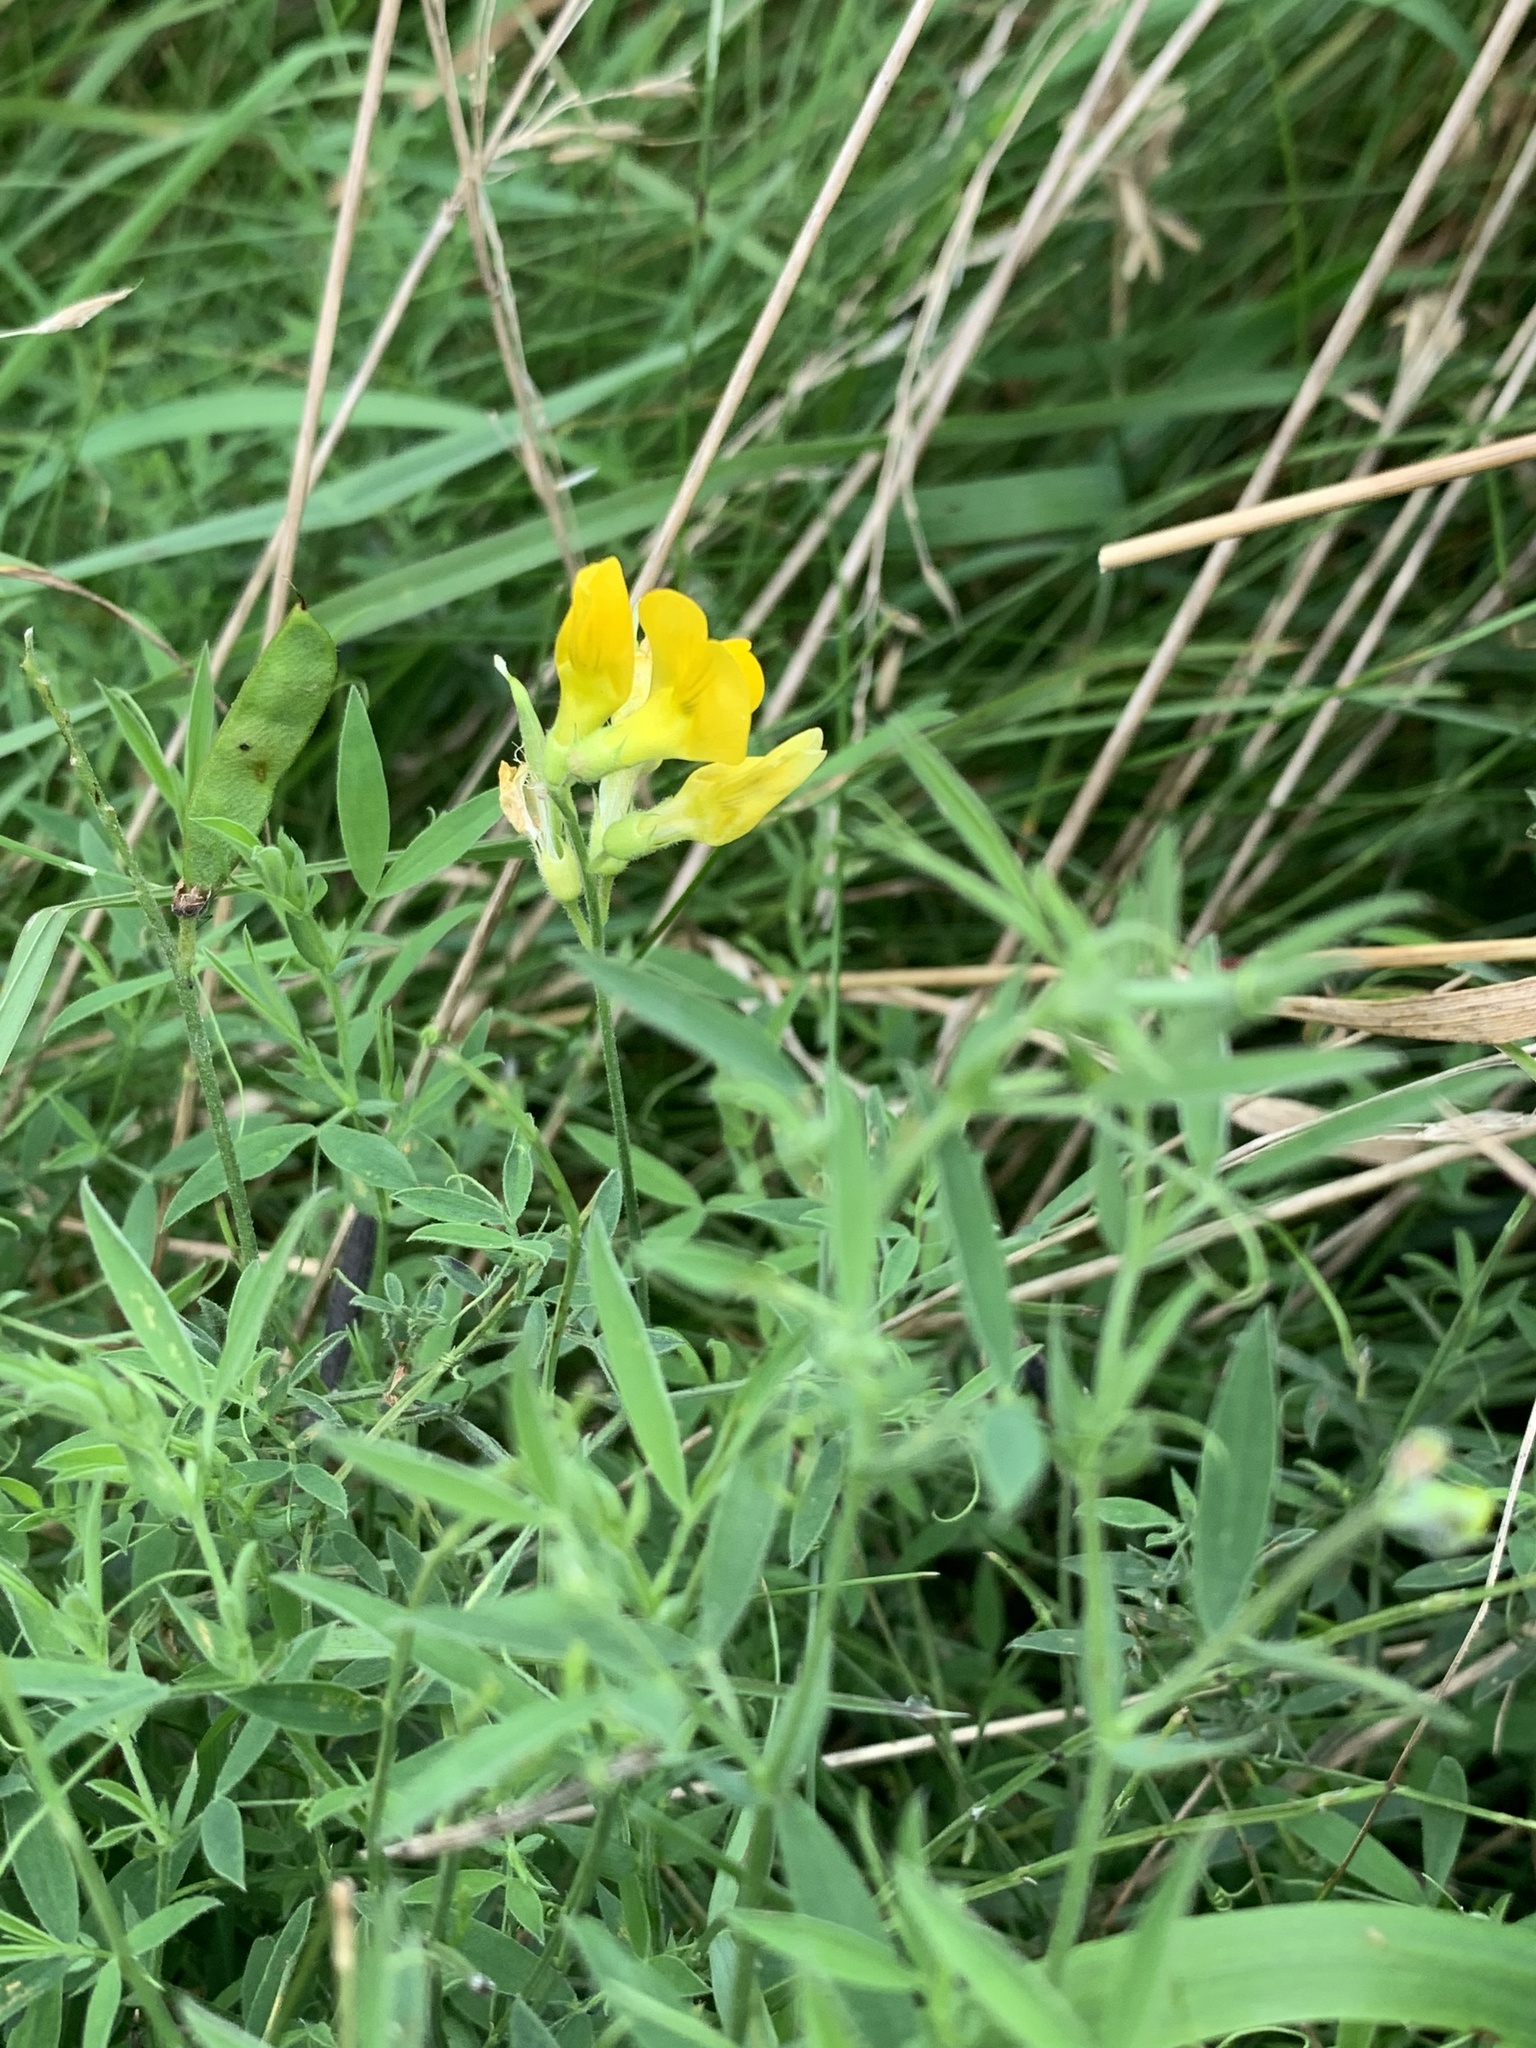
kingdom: Plantae
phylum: Tracheophyta
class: Magnoliopsida
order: Fabales
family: Fabaceae
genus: Lathyrus
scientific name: Lathyrus pratensis
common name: Meadow vetchling
